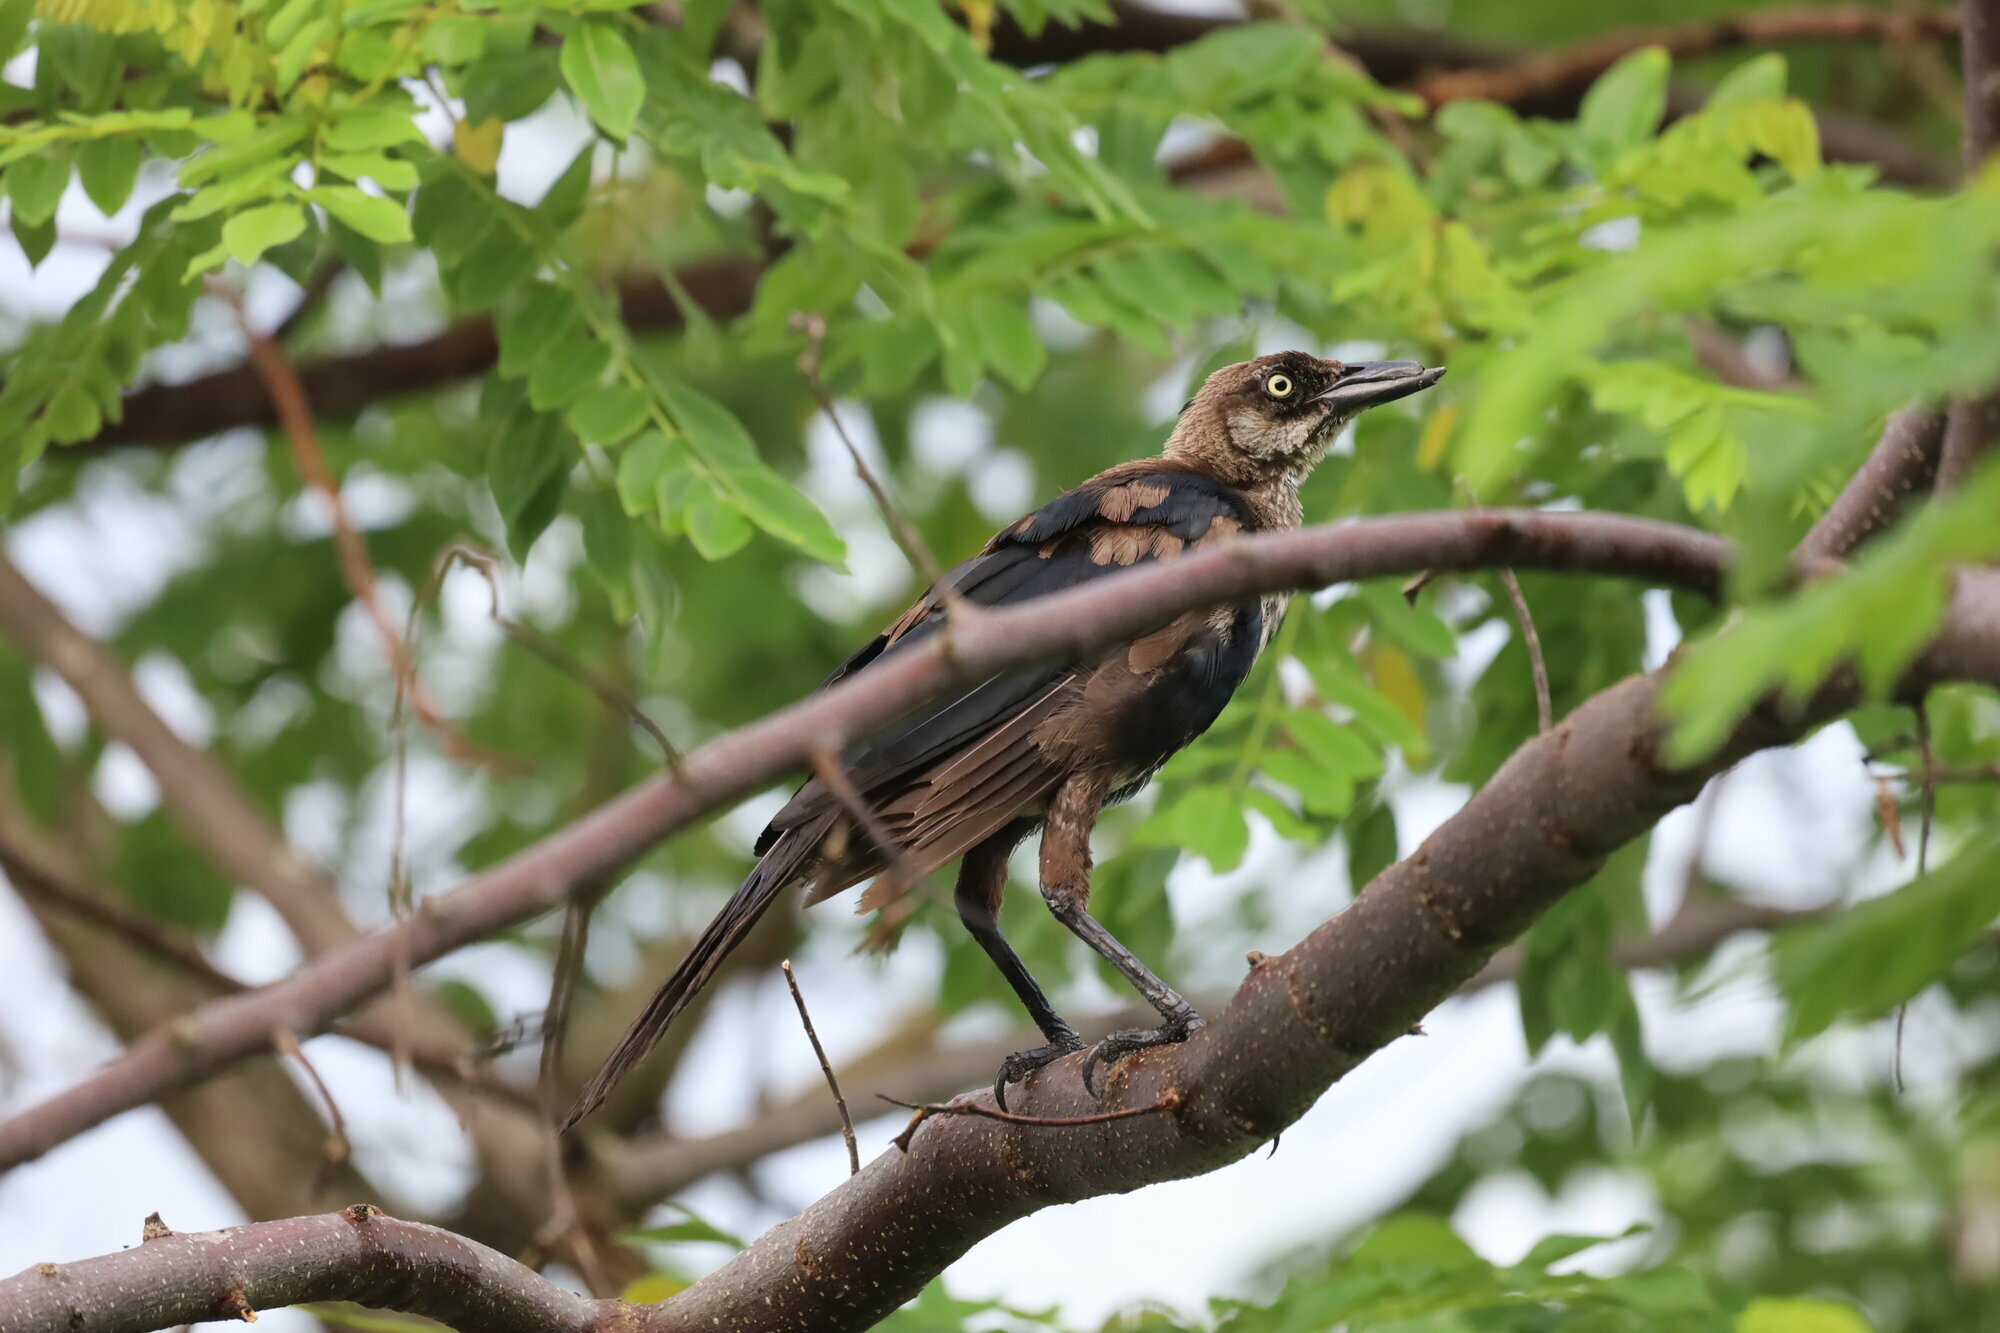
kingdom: Animalia
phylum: Chordata
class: Aves
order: Passeriformes
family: Icteridae
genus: Quiscalus
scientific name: Quiscalus mexicanus
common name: Great-tailed grackle
